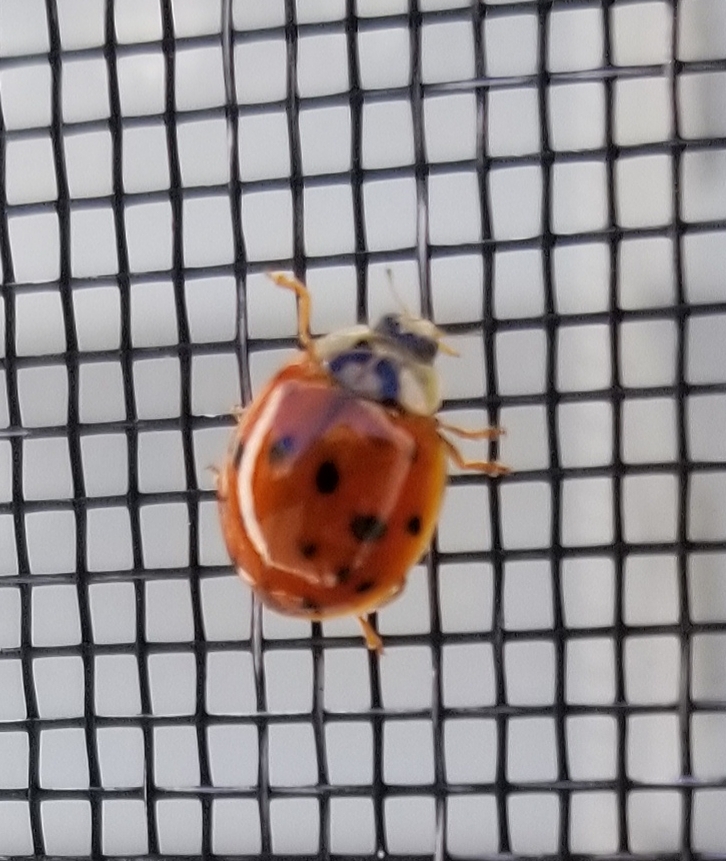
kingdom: Animalia
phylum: Arthropoda
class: Insecta
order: Coleoptera
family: Coccinellidae
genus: Harmonia
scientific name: Harmonia axyridis
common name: Harlequin ladybird
